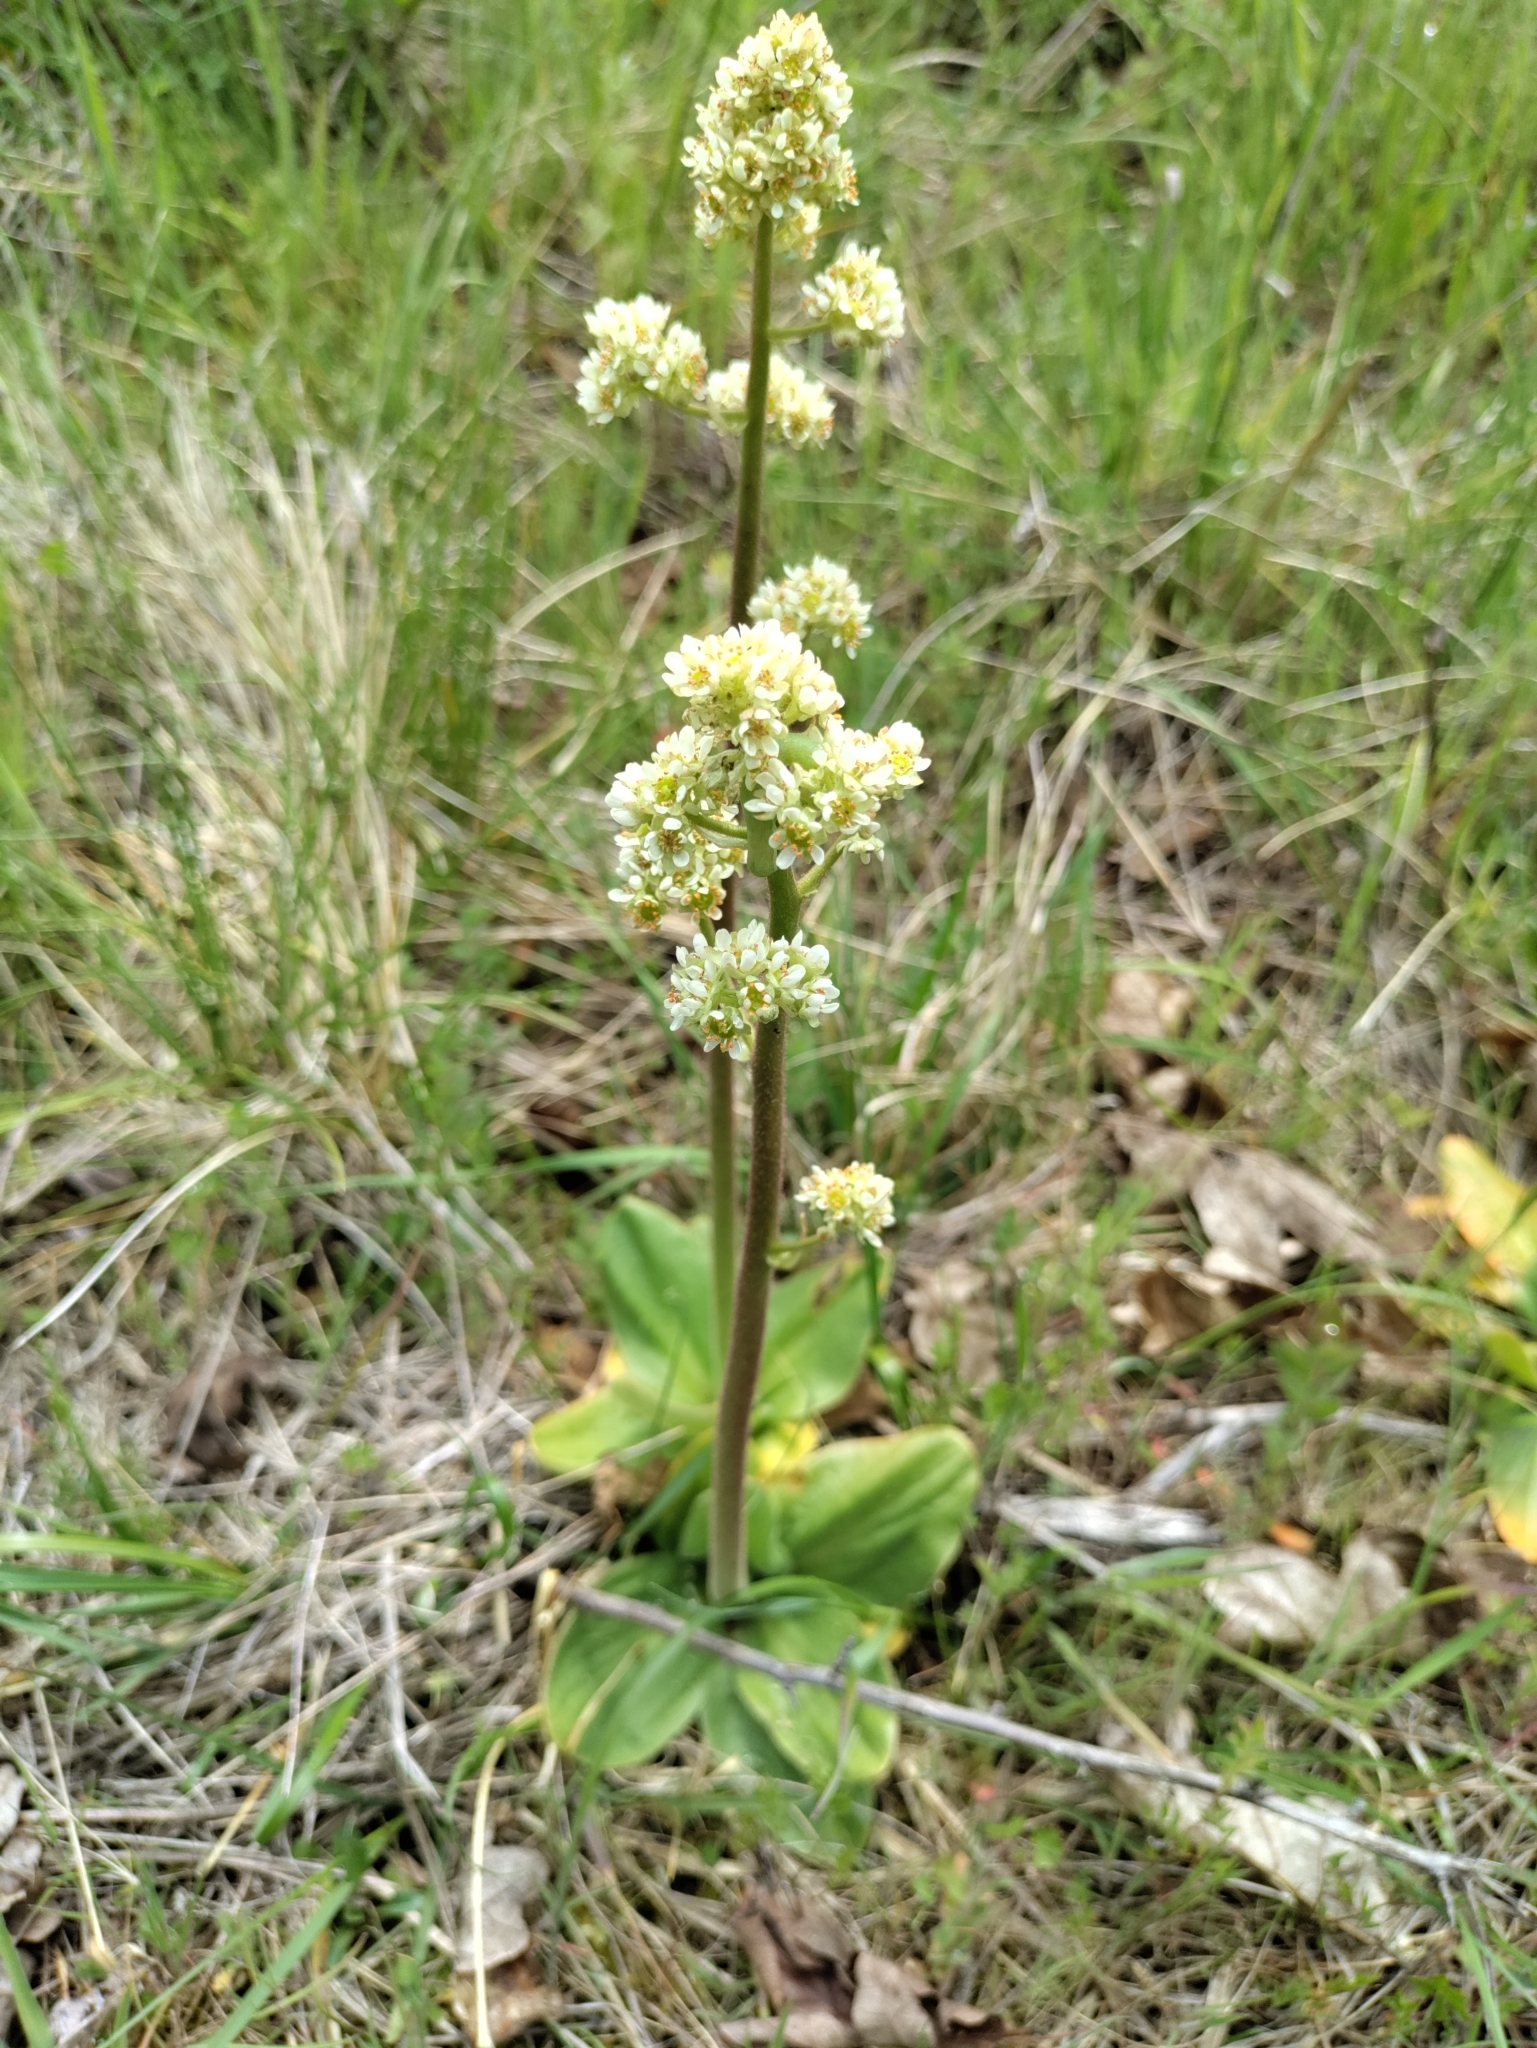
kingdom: Plantae
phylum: Tracheophyta
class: Magnoliopsida
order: Saxifragales
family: Saxifragaceae
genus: Micranthes
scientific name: Micranthes oregana
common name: Bog saxifrage
